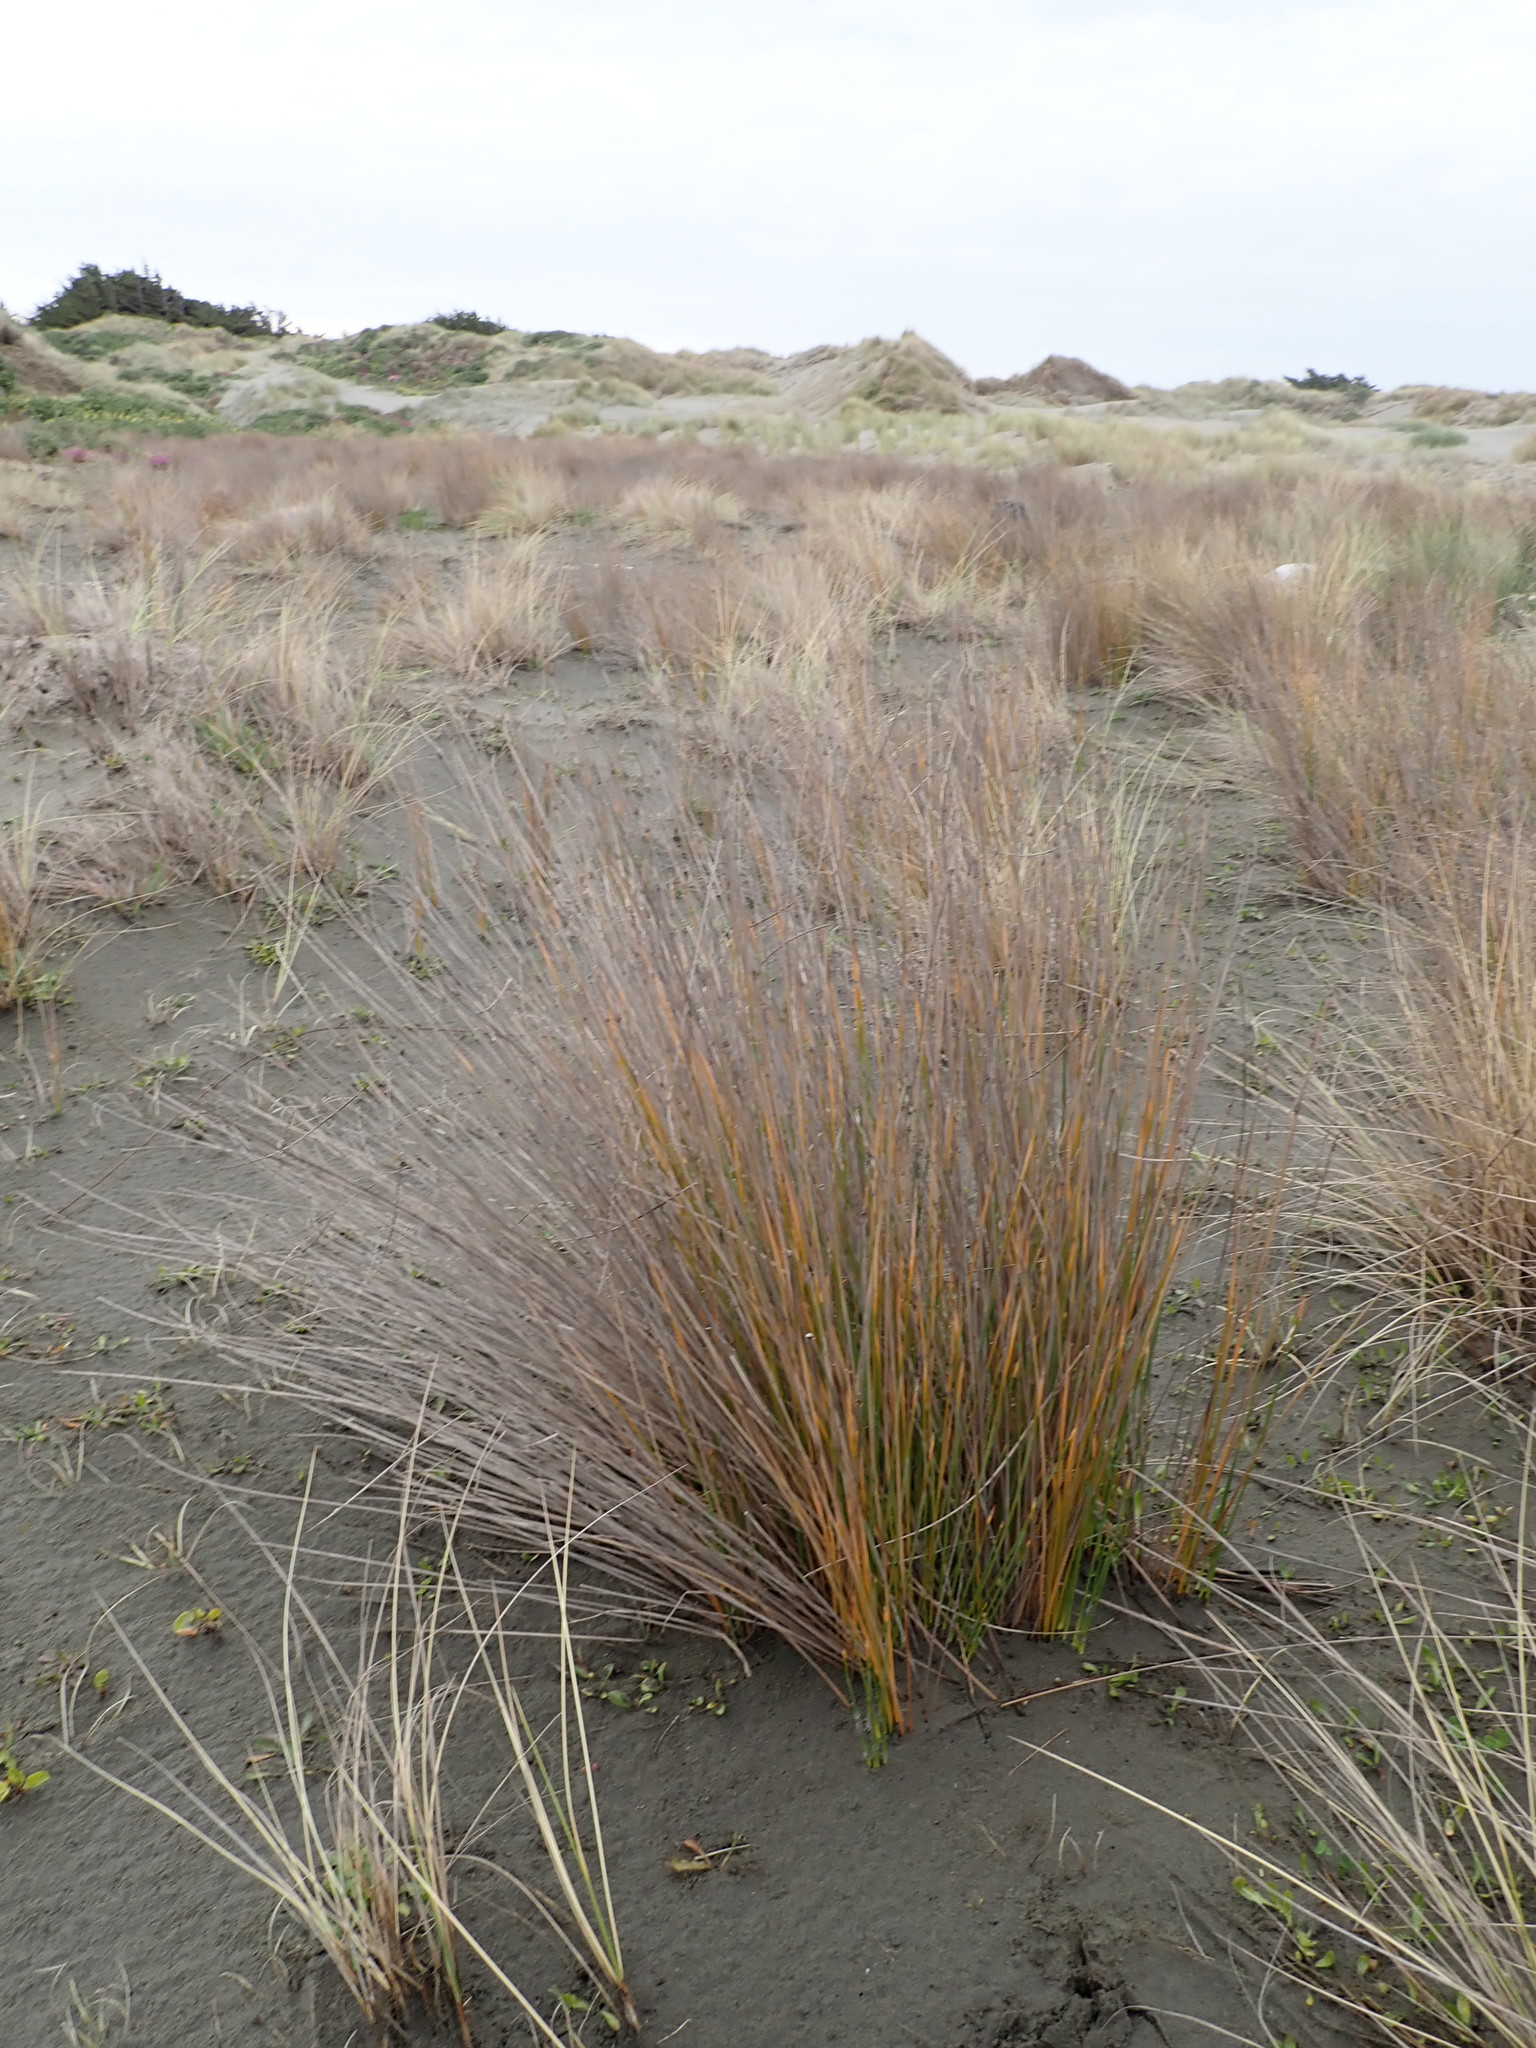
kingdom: Plantae
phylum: Tracheophyta
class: Liliopsida
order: Poales
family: Cyperaceae
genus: Ficinia
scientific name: Ficinia nodosa
